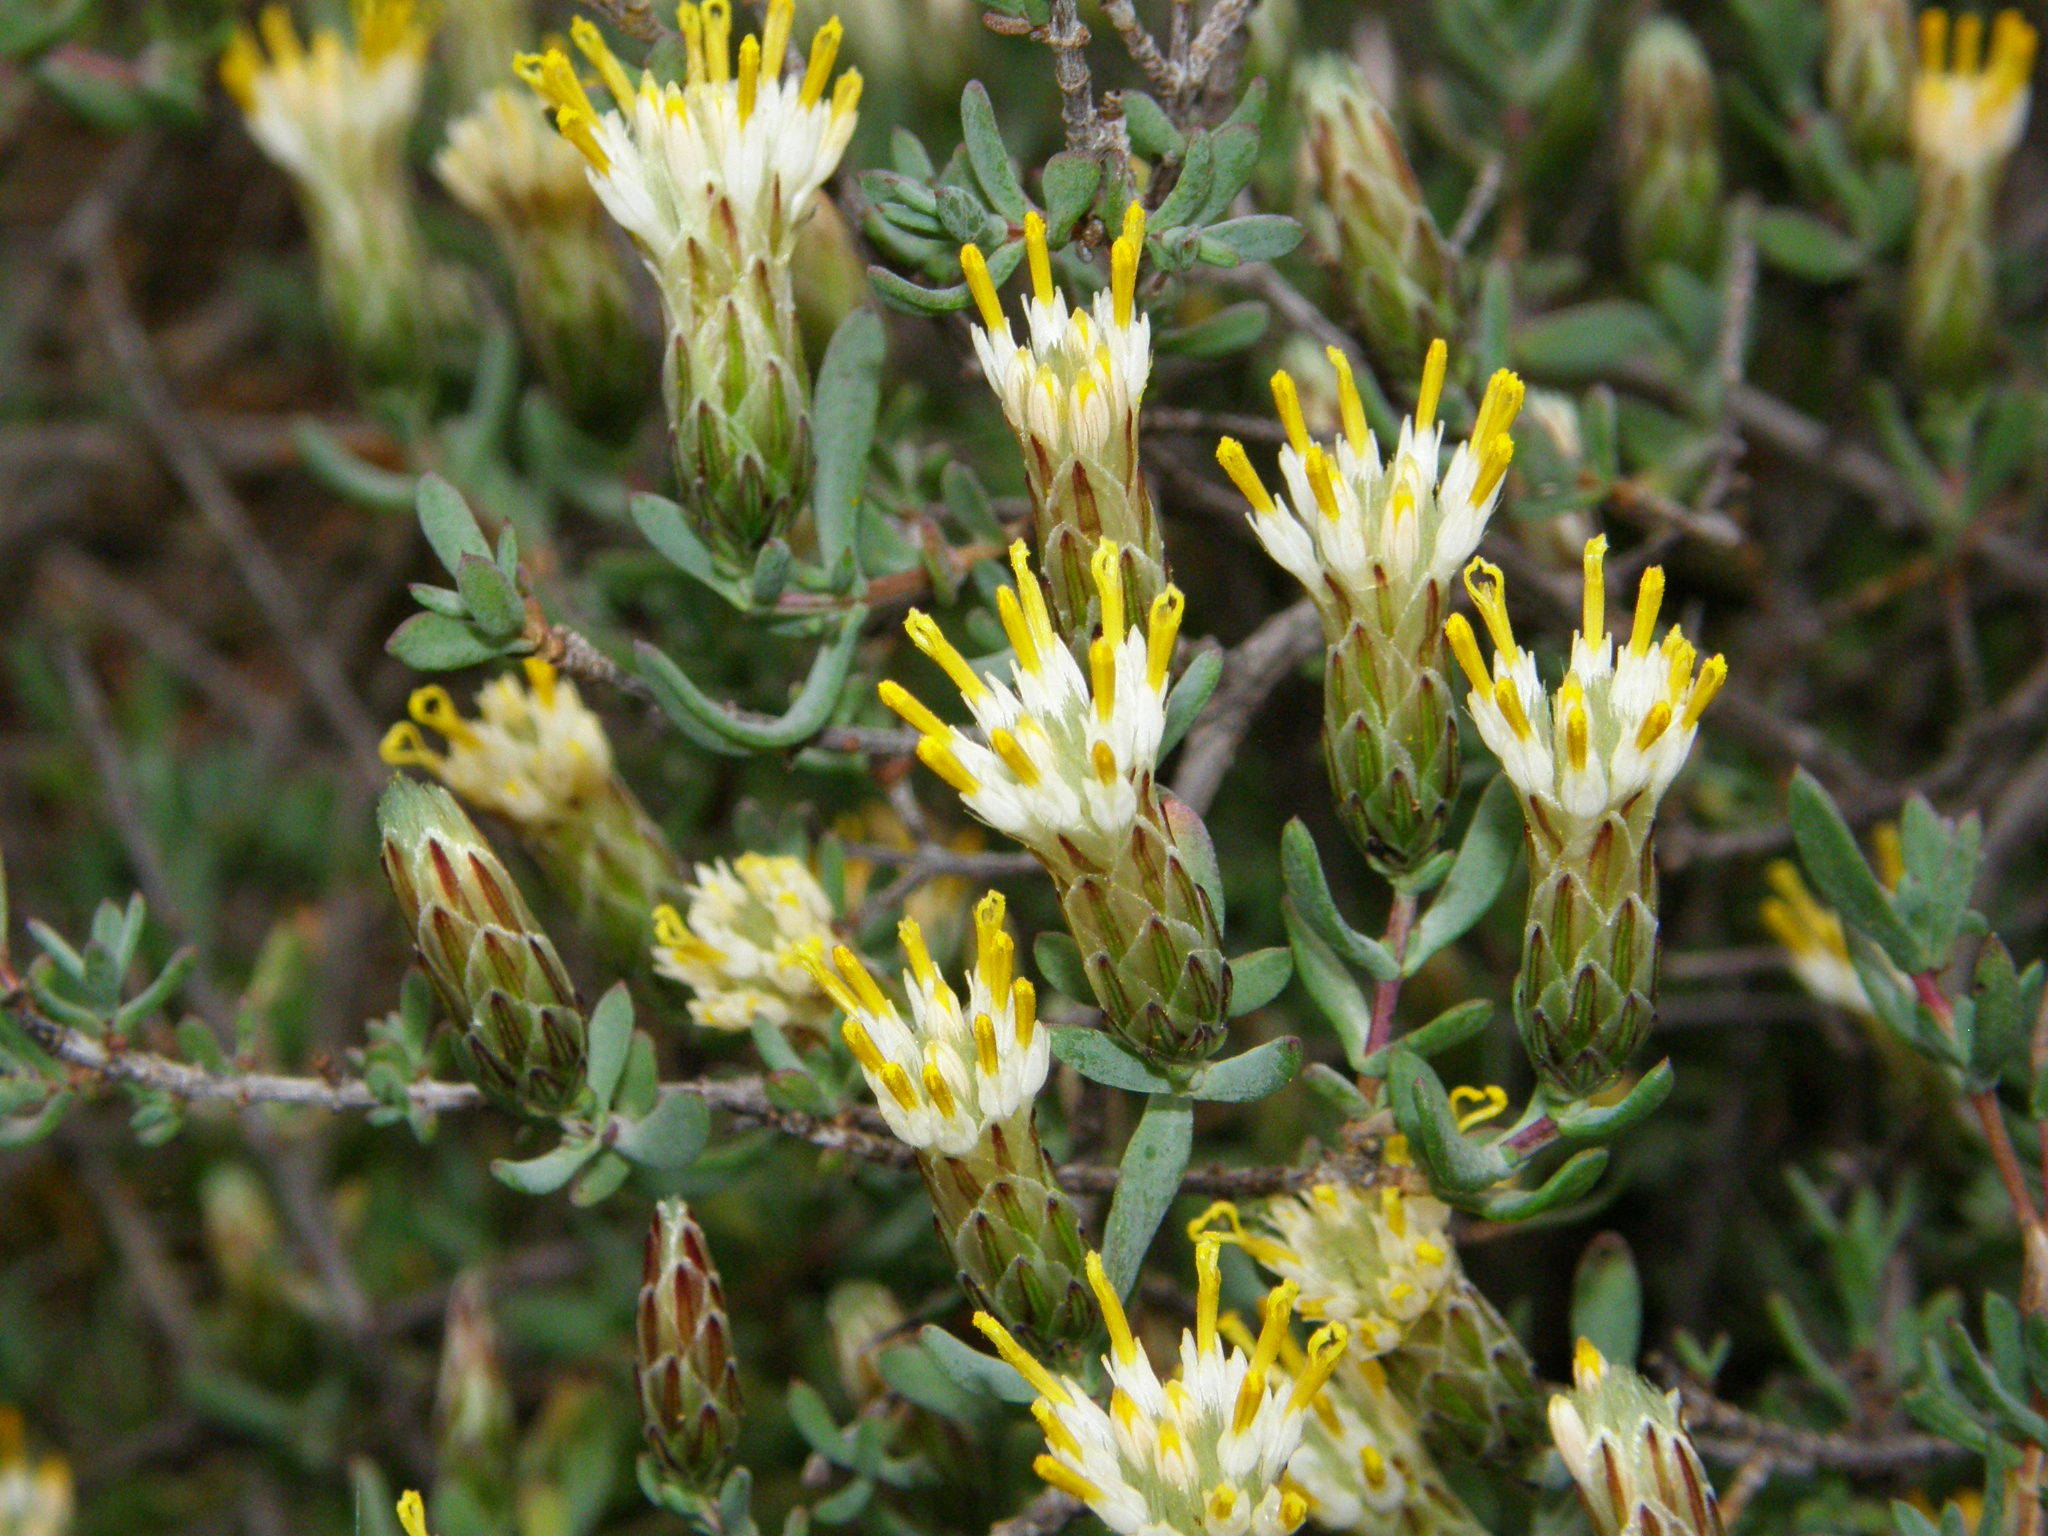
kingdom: Plantae
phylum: Tracheophyta
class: Magnoliopsida
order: Asterales
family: Asteraceae
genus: Pteronia
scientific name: Pteronia oblanceolata
